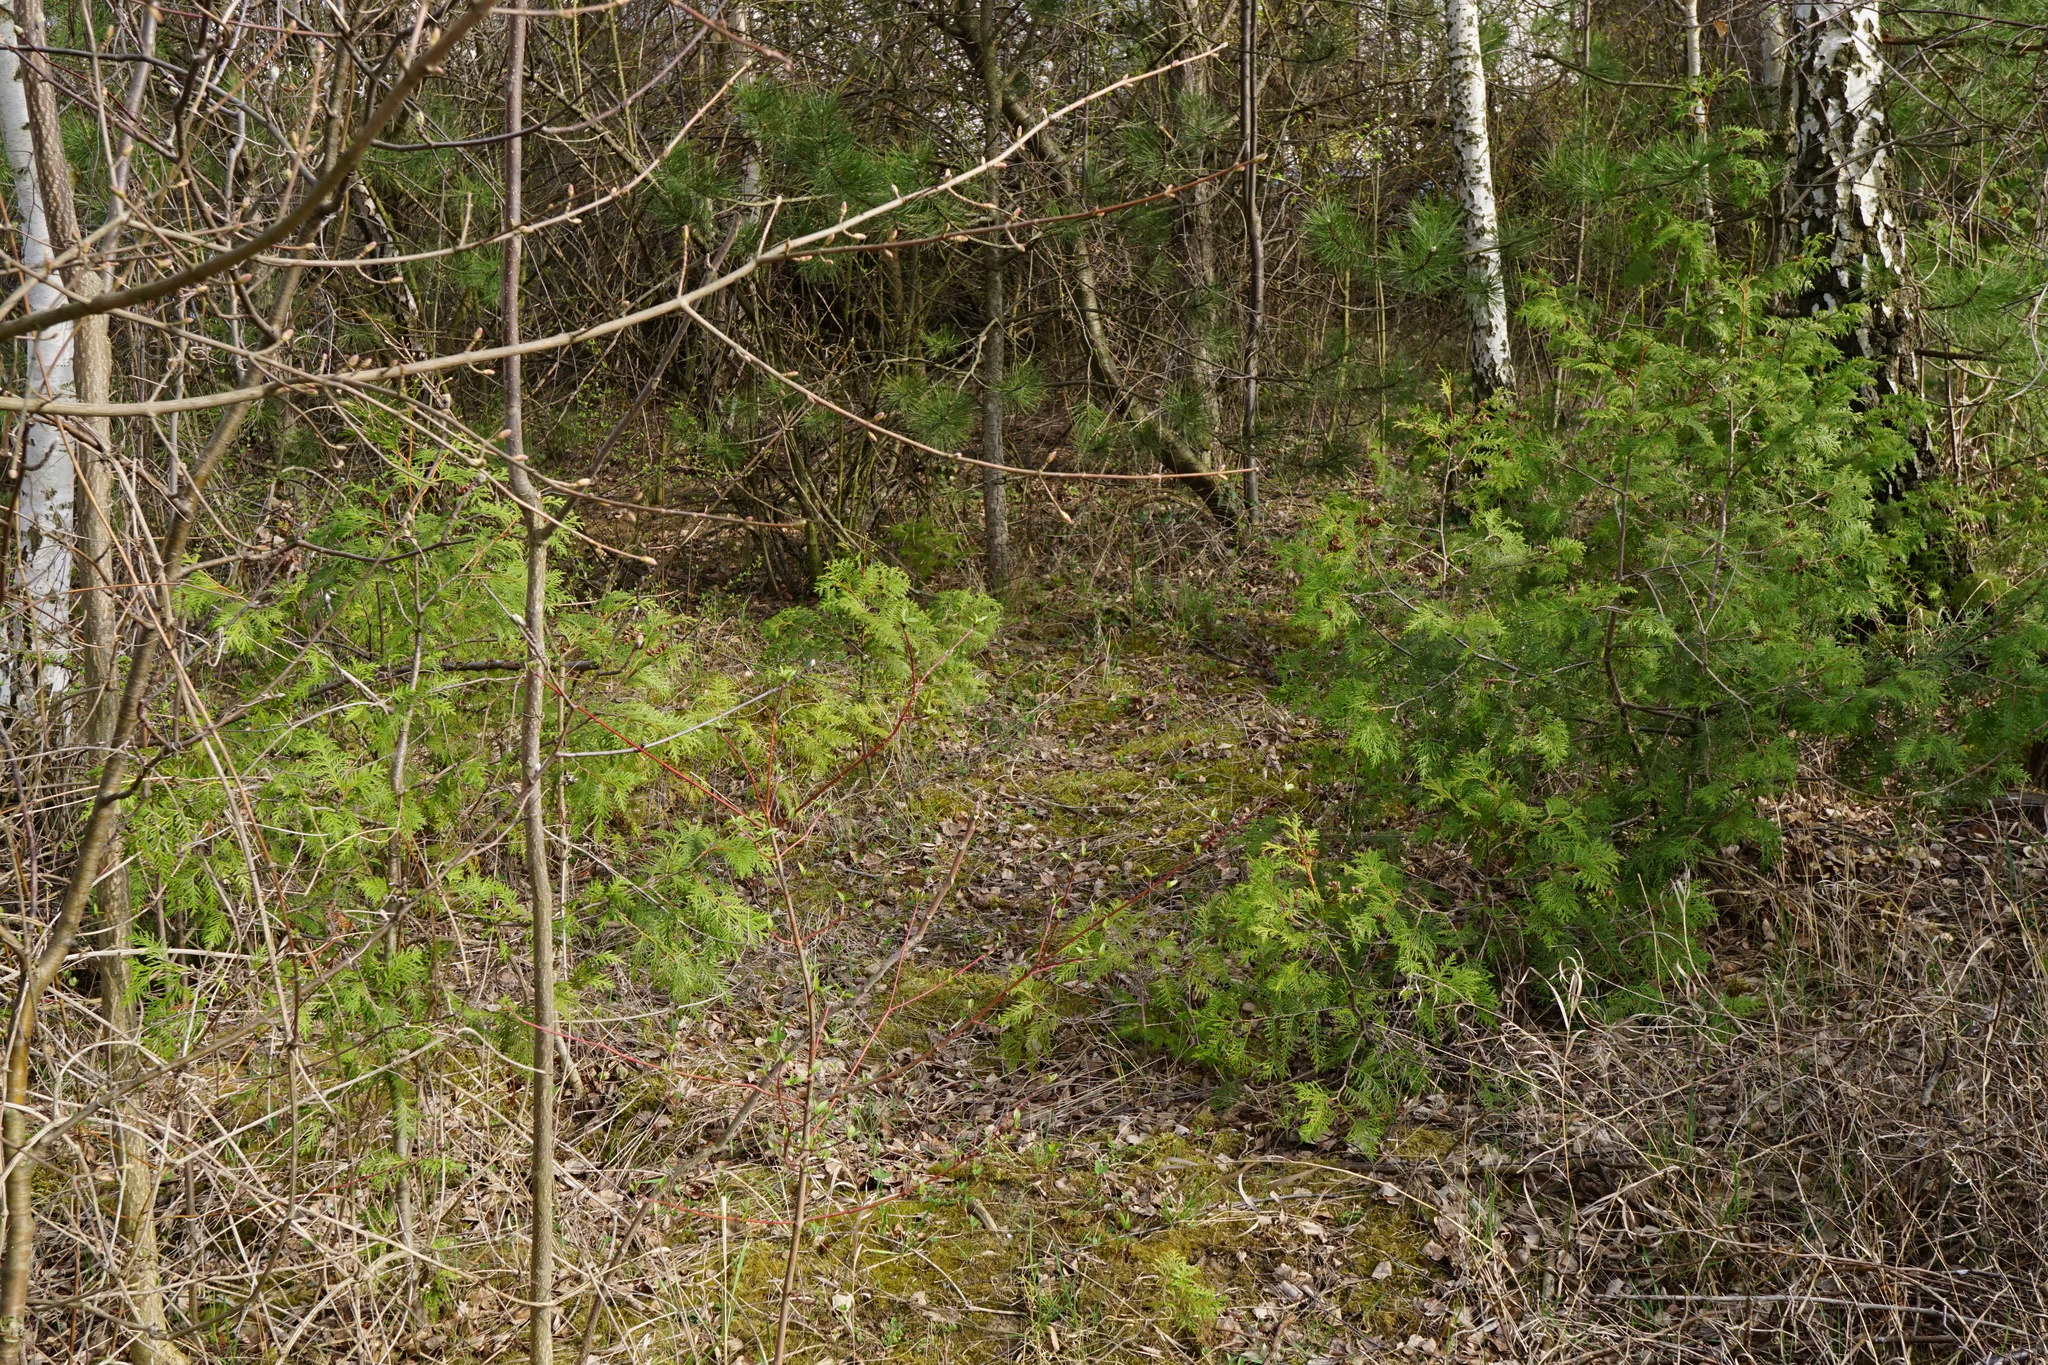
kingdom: Plantae
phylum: Tracheophyta
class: Pinopsida
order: Pinales
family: Cupressaceae
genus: Thuja
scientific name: Thuja plicata
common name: Western red-cedar
